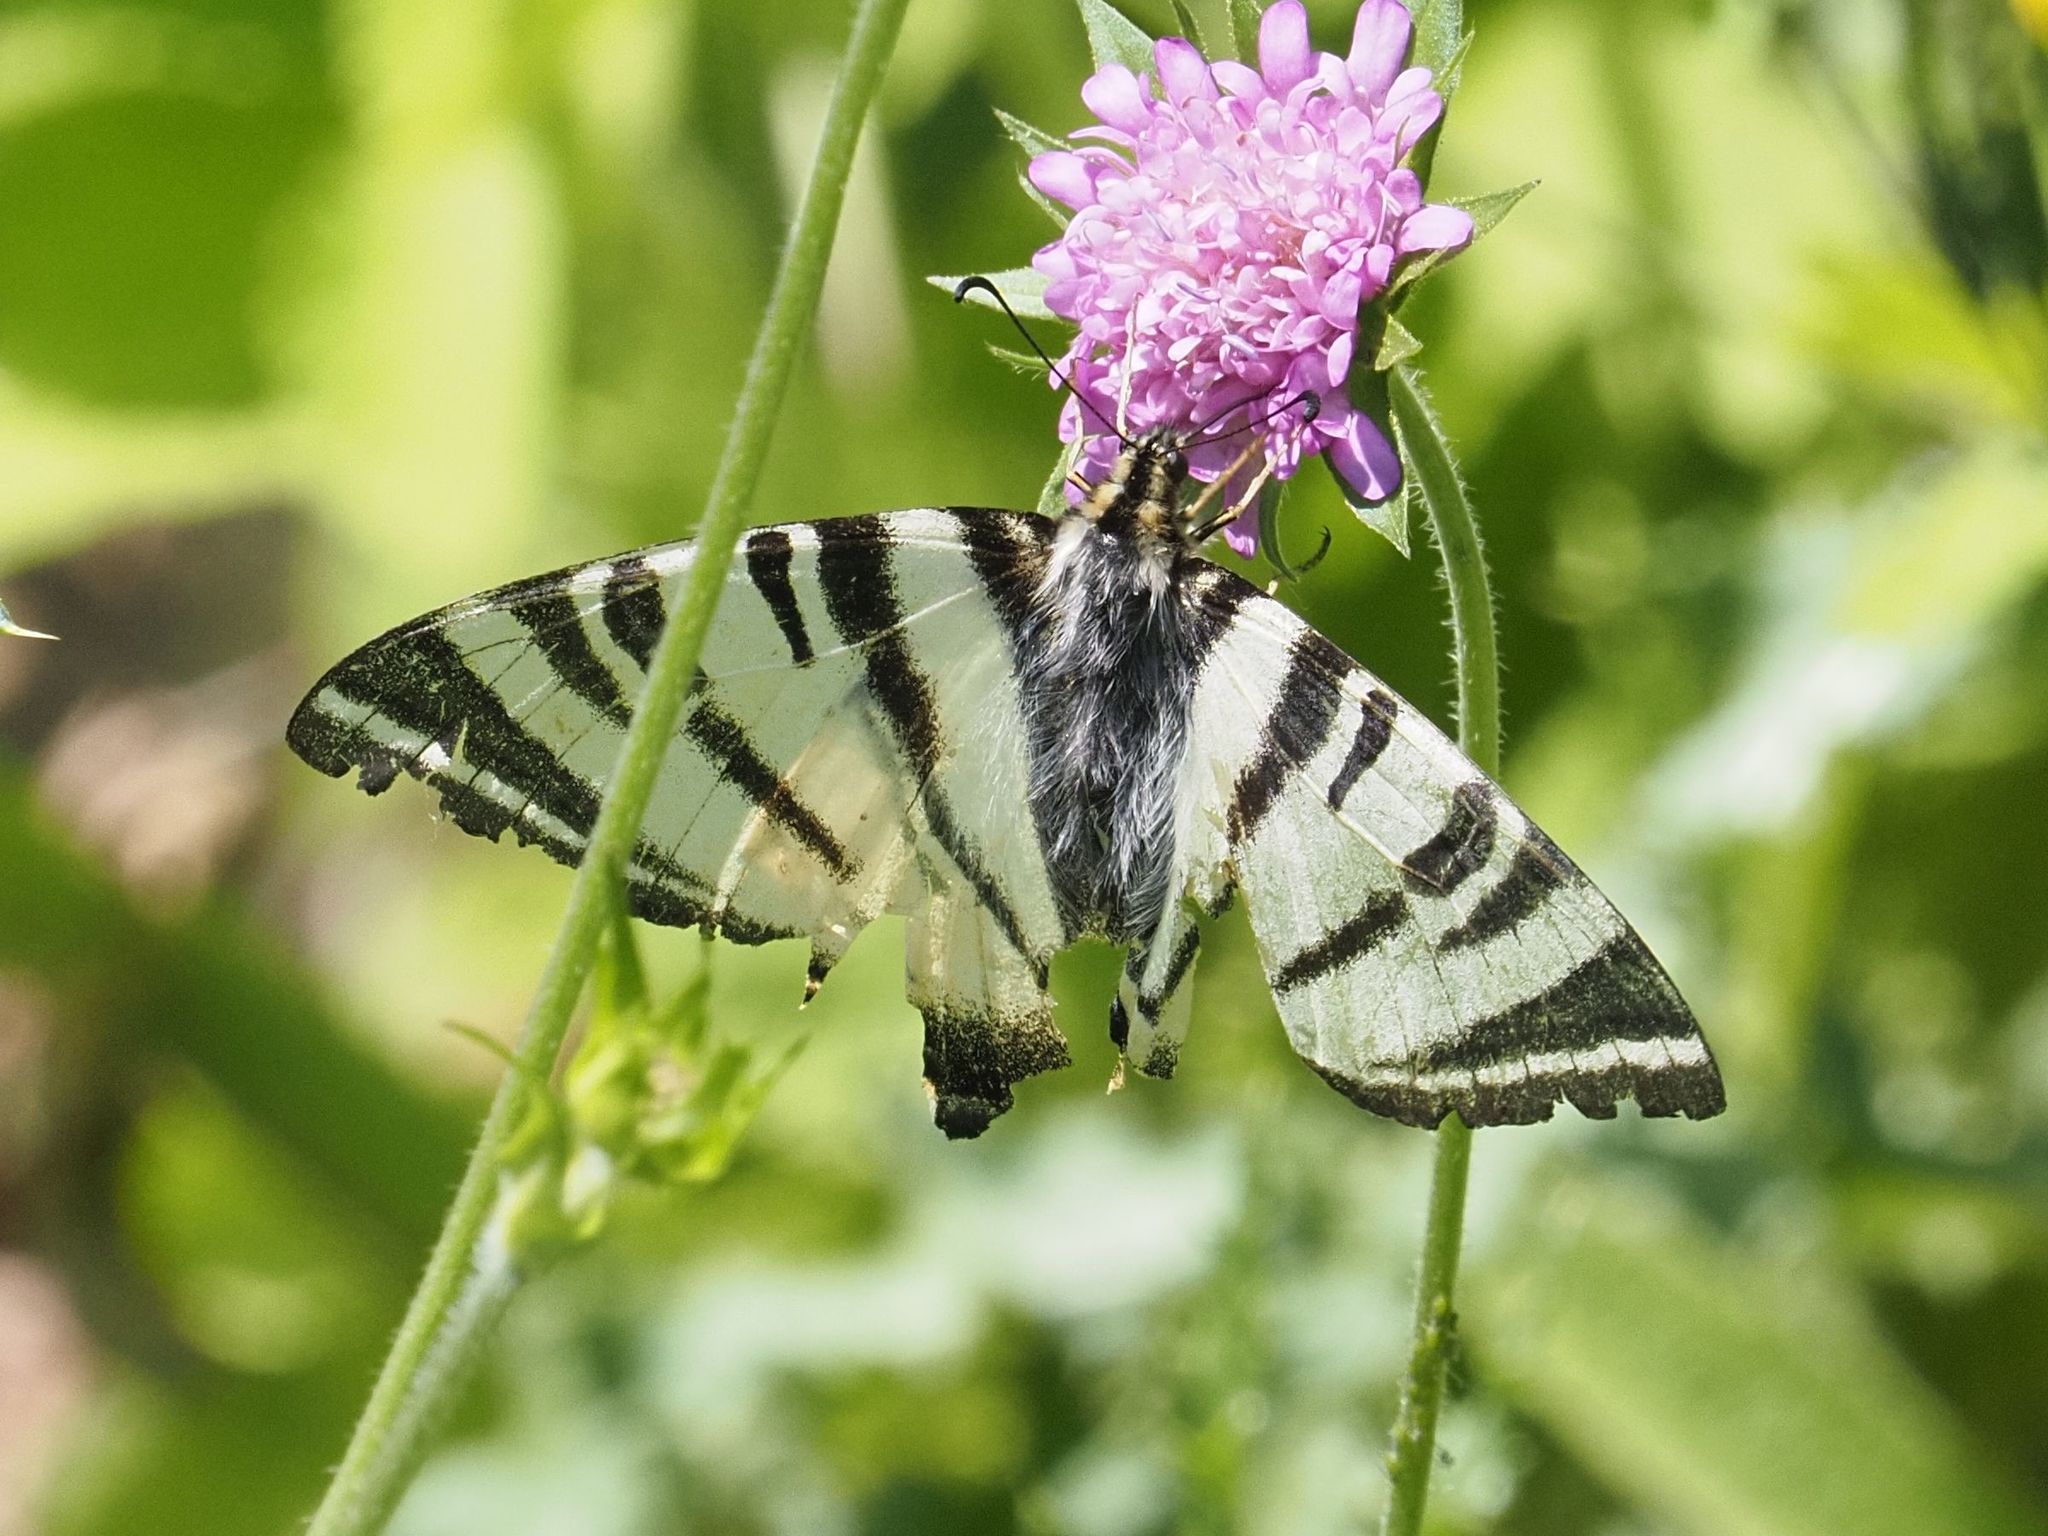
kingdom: Animalia
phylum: Arthropoda
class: Insecta
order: Lepidoptera
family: Papilionidae
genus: Iphiclides
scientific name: Iphiclides podalirius
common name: Scarce swallowtail
